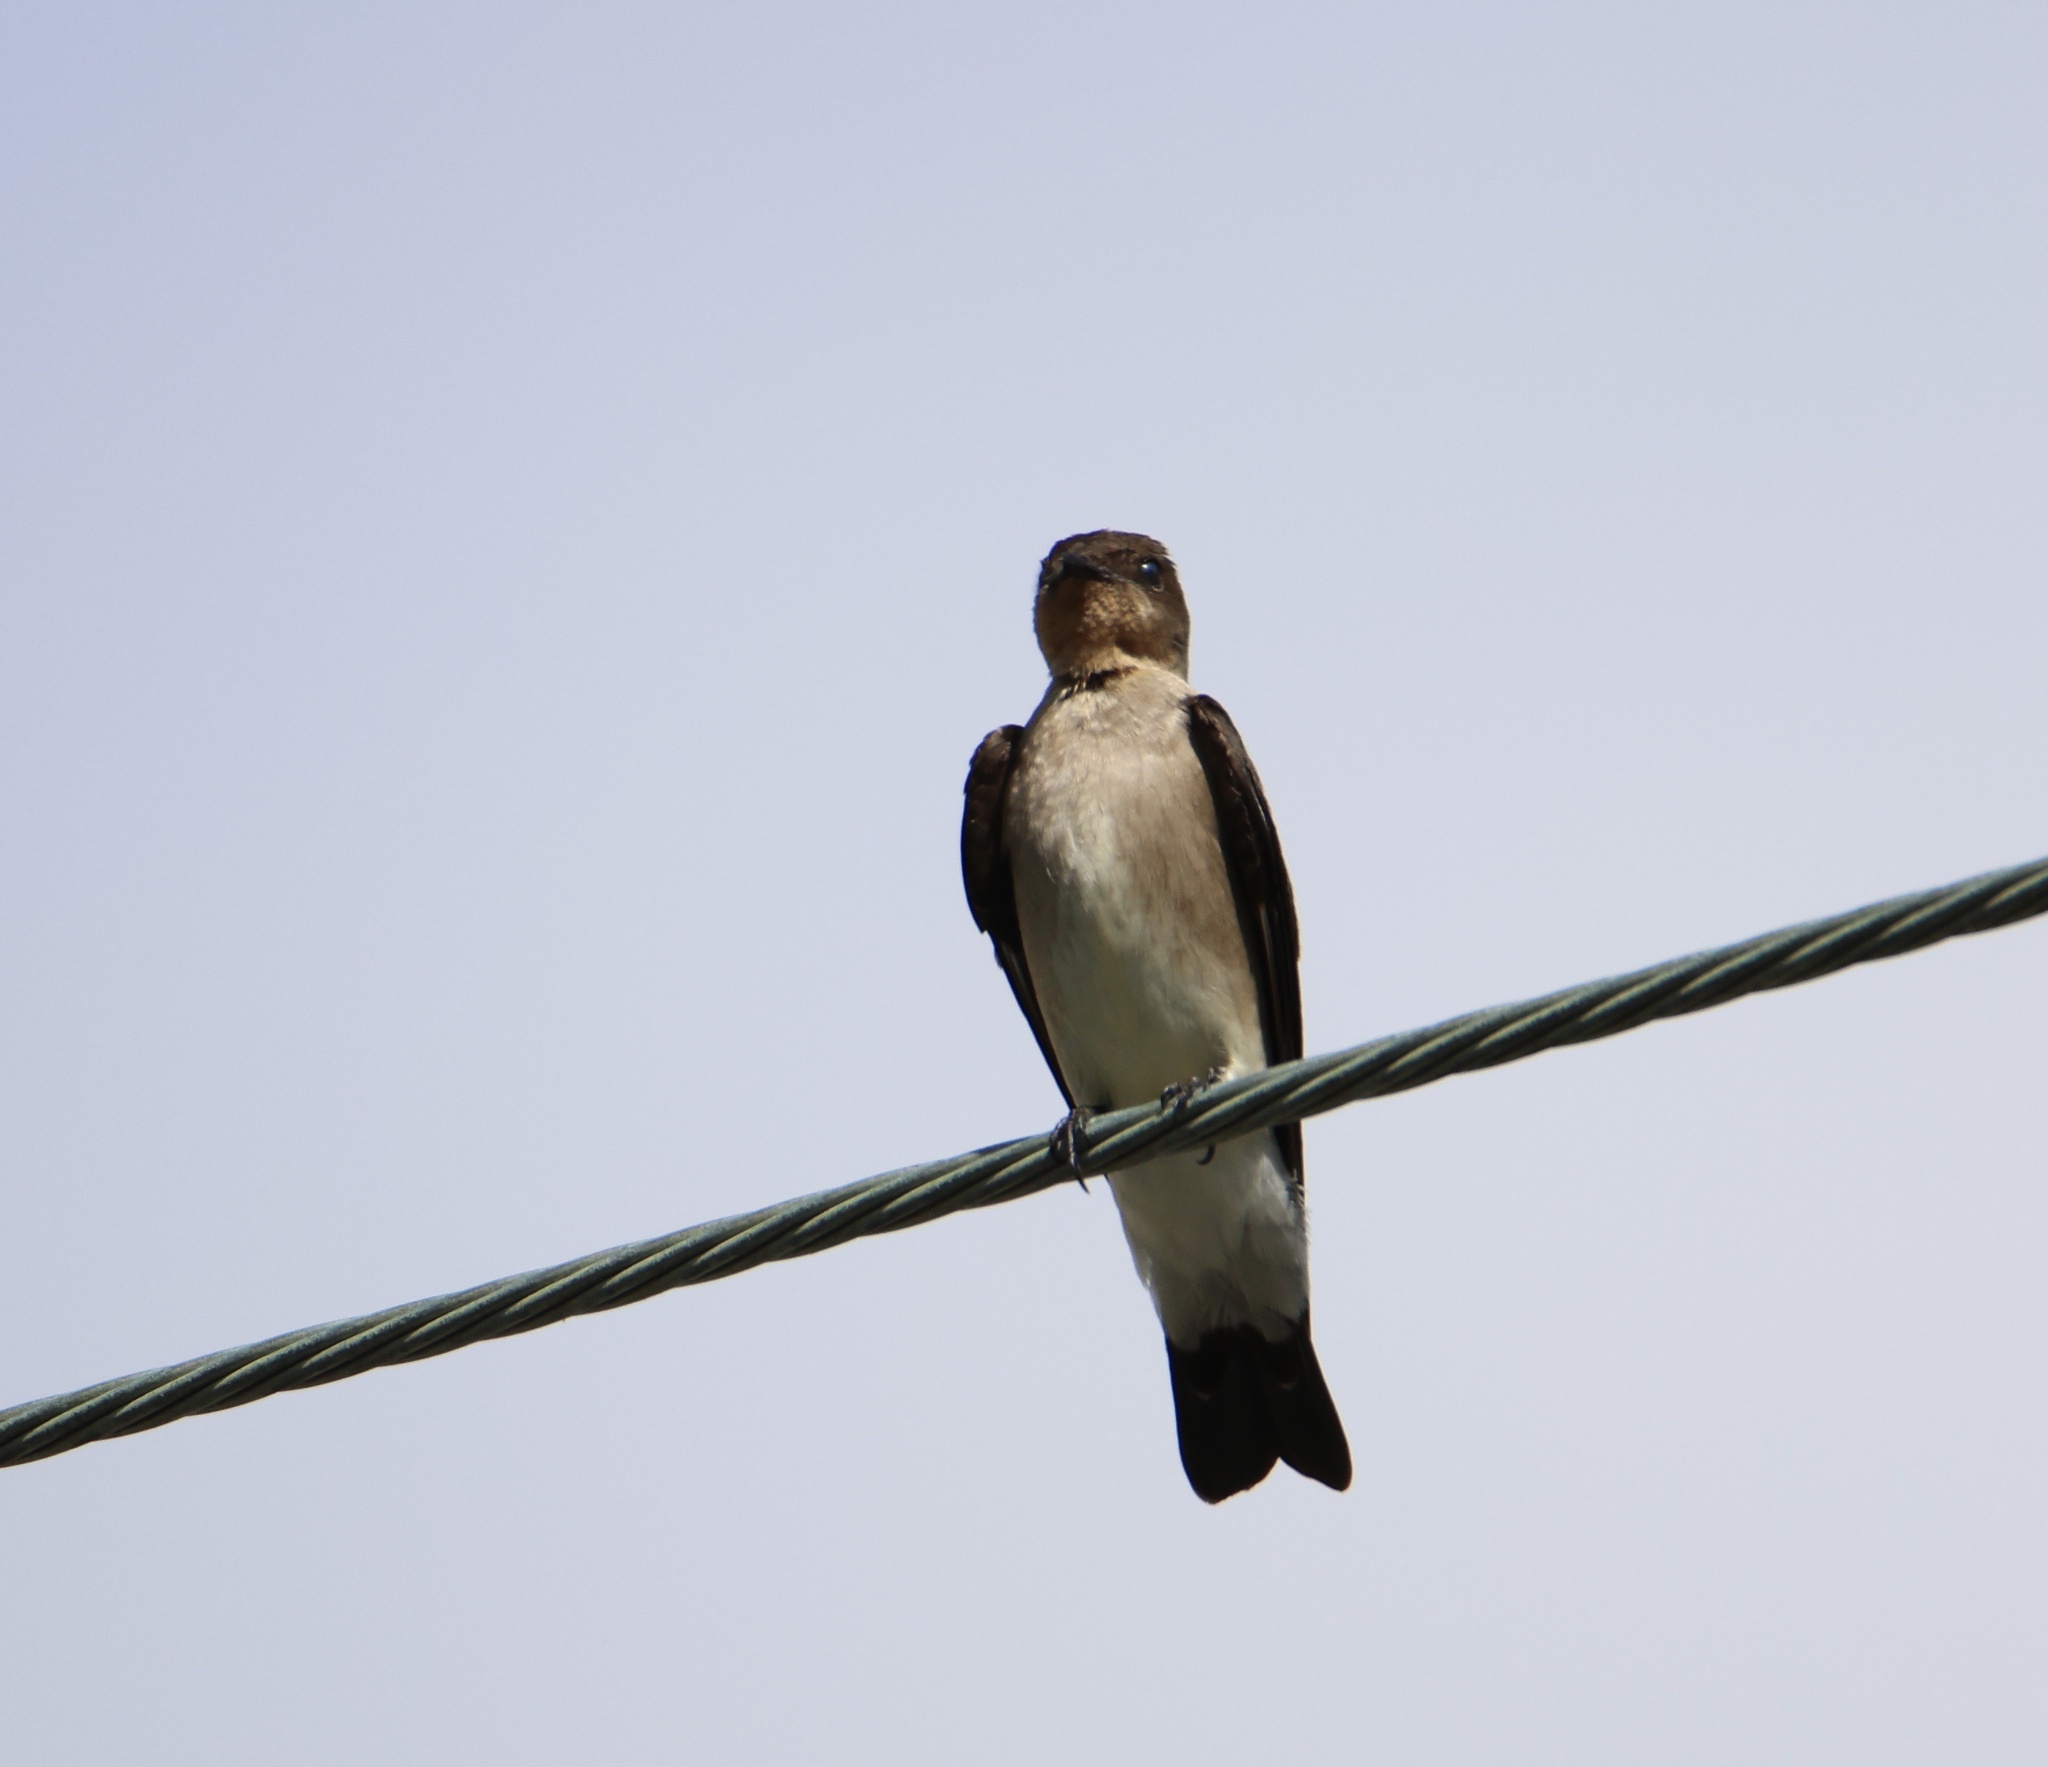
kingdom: Animalia
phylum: Chordata
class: Aves
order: Passeriformes
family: Hirundinidae
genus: Stelgidopteryx
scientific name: Stelgidopteryx ruficollis
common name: Southern rough-winged swallow
